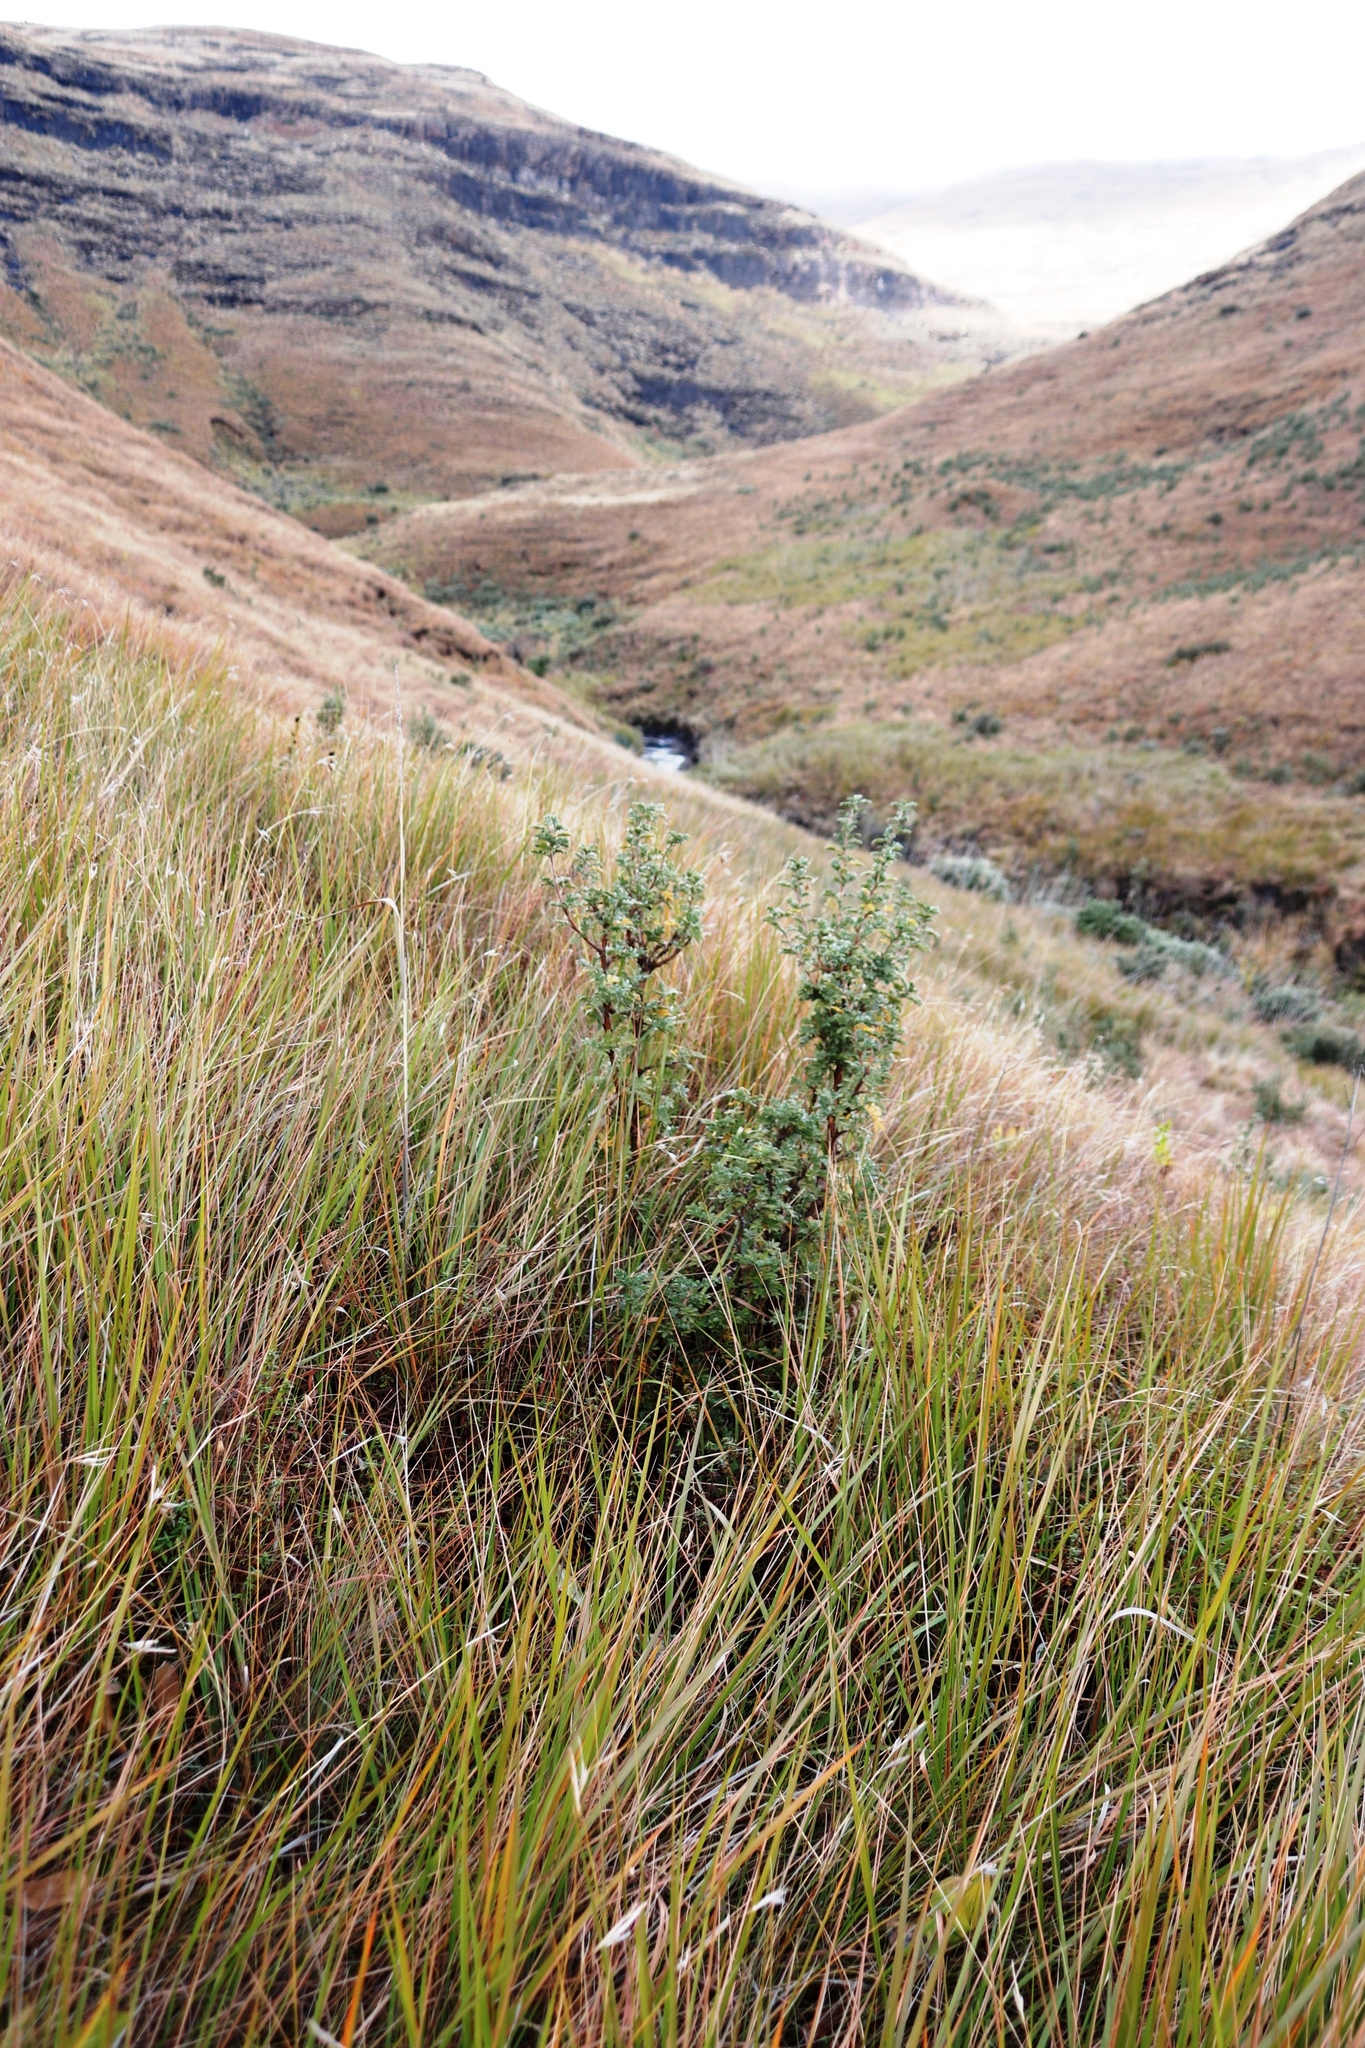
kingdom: Plantae
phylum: Tracheophyta
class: Magnoliopsida
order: Rosales
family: Rosaceae
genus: Leucosidea
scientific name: Leucosidea sericea
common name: Oldwood
